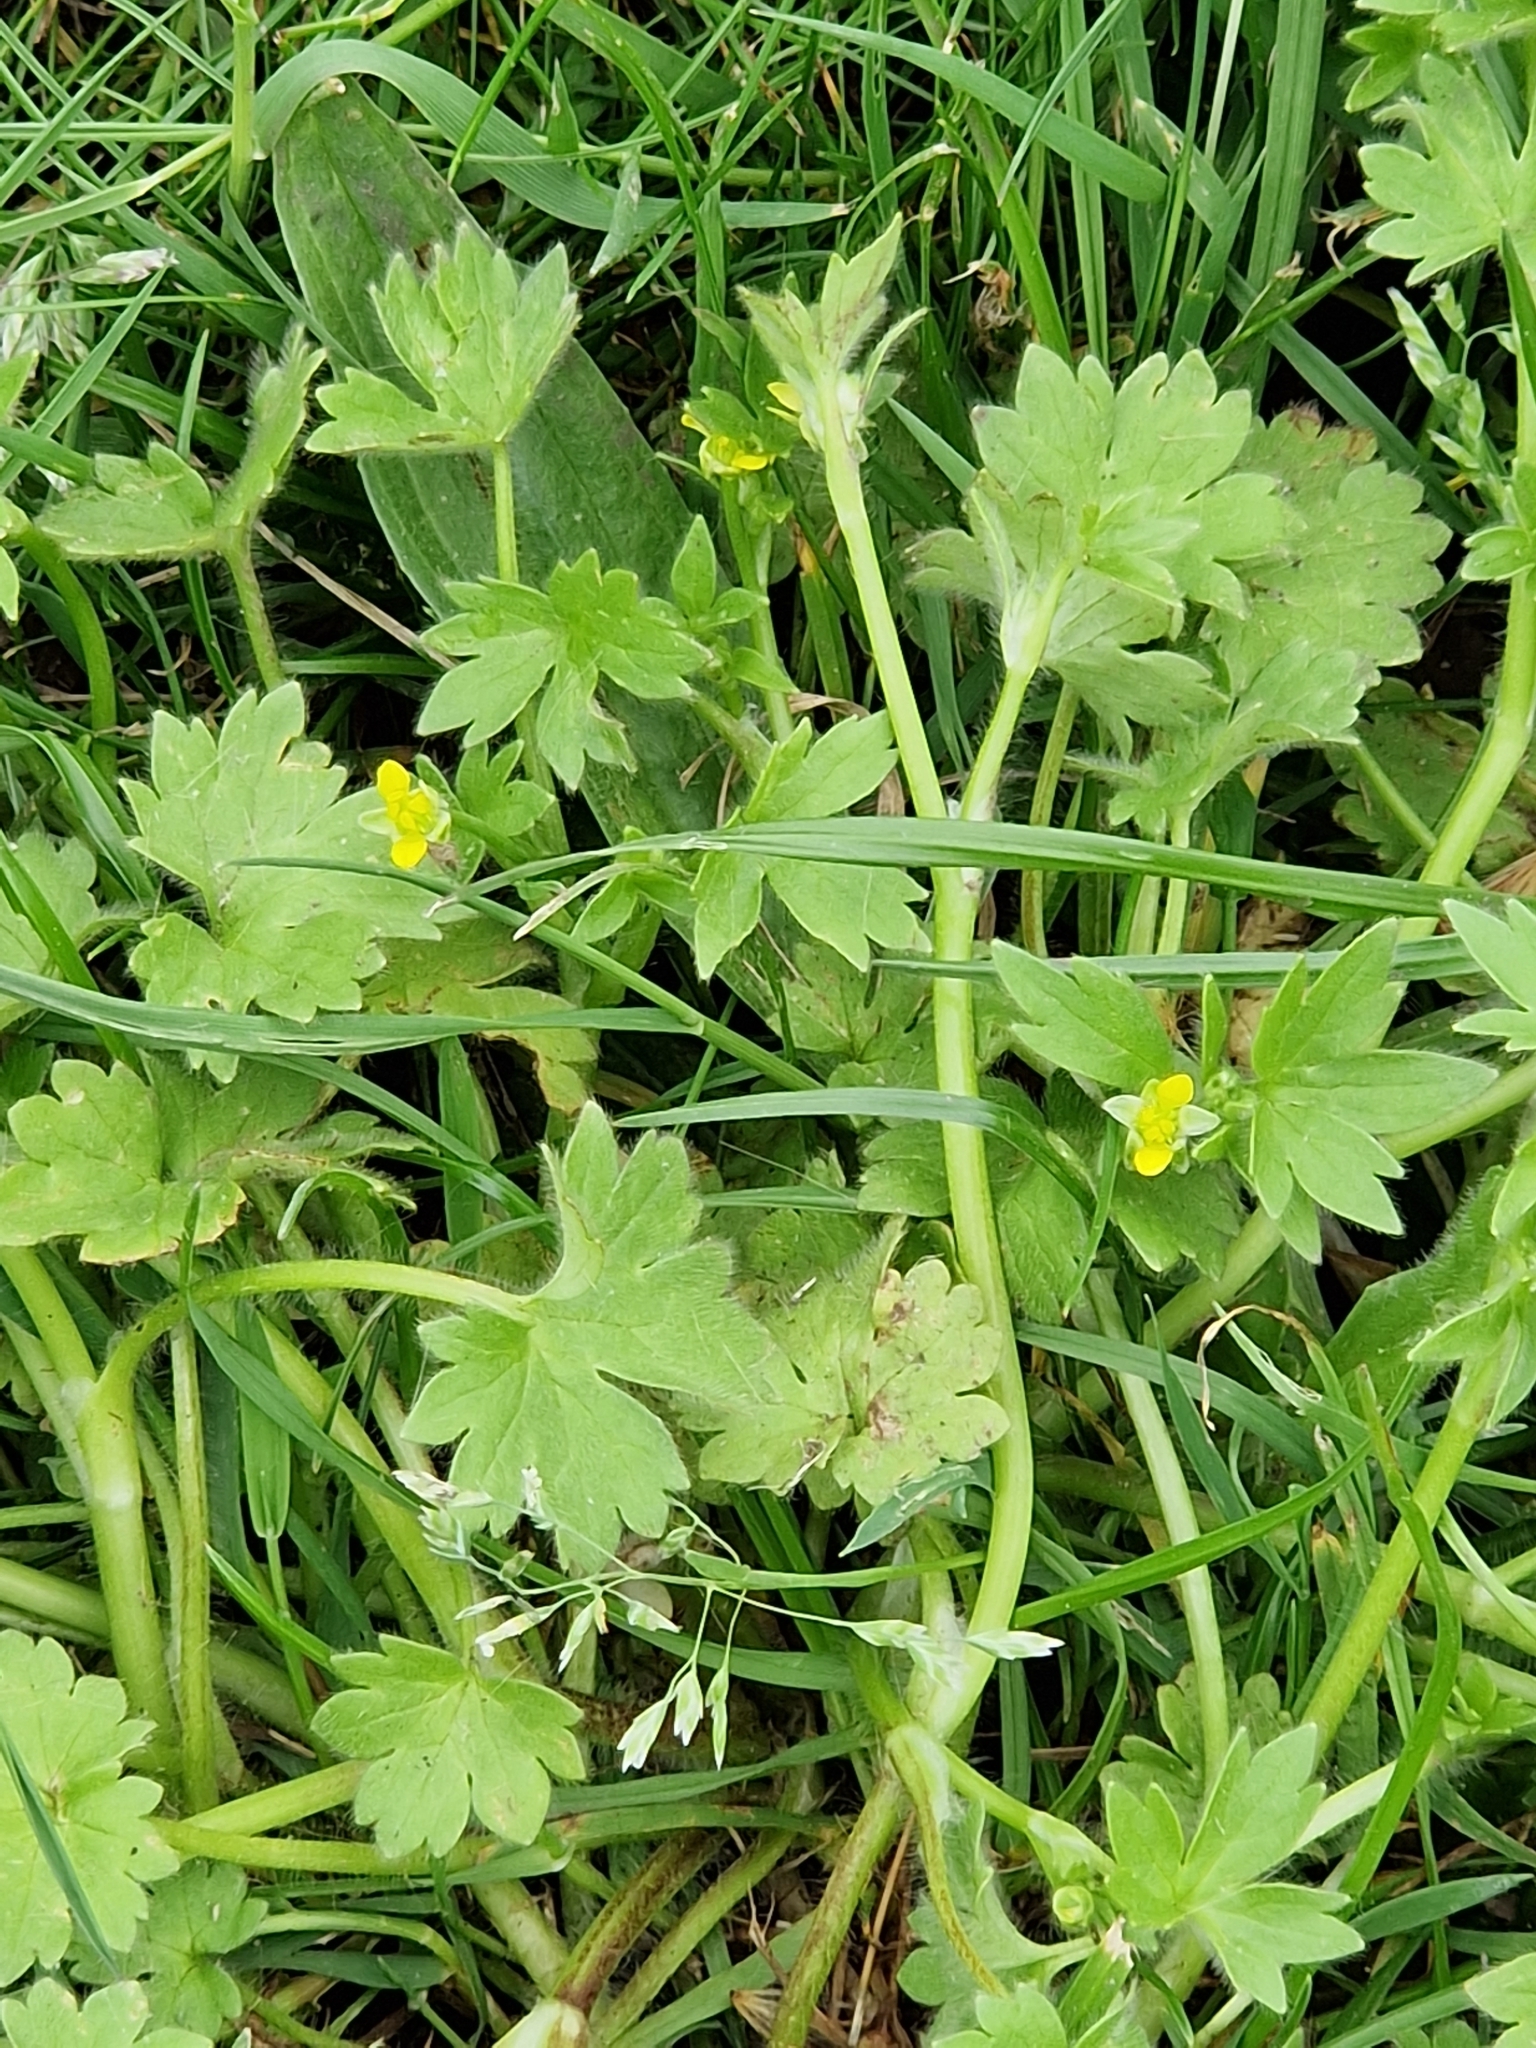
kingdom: Plantae
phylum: Tracheophyta
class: Magnoliopsida
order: Ranunculales
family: Ranunculaceae
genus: Ranunculus
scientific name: Ranunculus parviflorus
